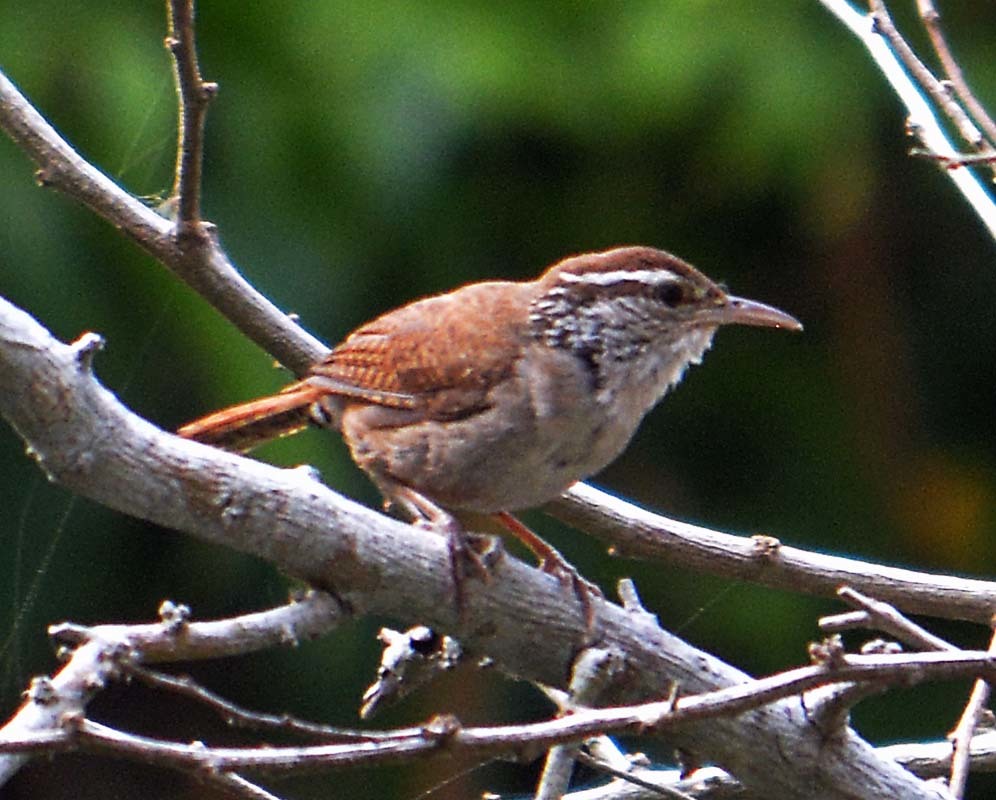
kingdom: Animalia
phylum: Chordata
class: Aves
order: Passeriformes
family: Troglodytidae
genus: Thryophilus
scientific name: Thryophilus sinaloa
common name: Sinaloa wren
